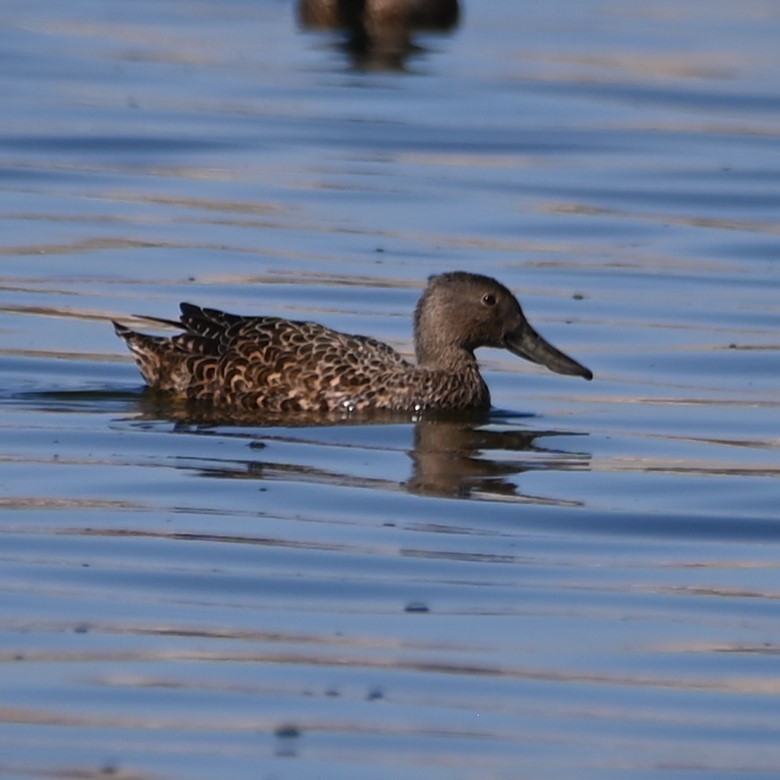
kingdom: Animalia
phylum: Chordata
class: Aves
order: Anseriformes
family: Anatidae
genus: Spatula
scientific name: Spatula smithii
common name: Cape shoveler
